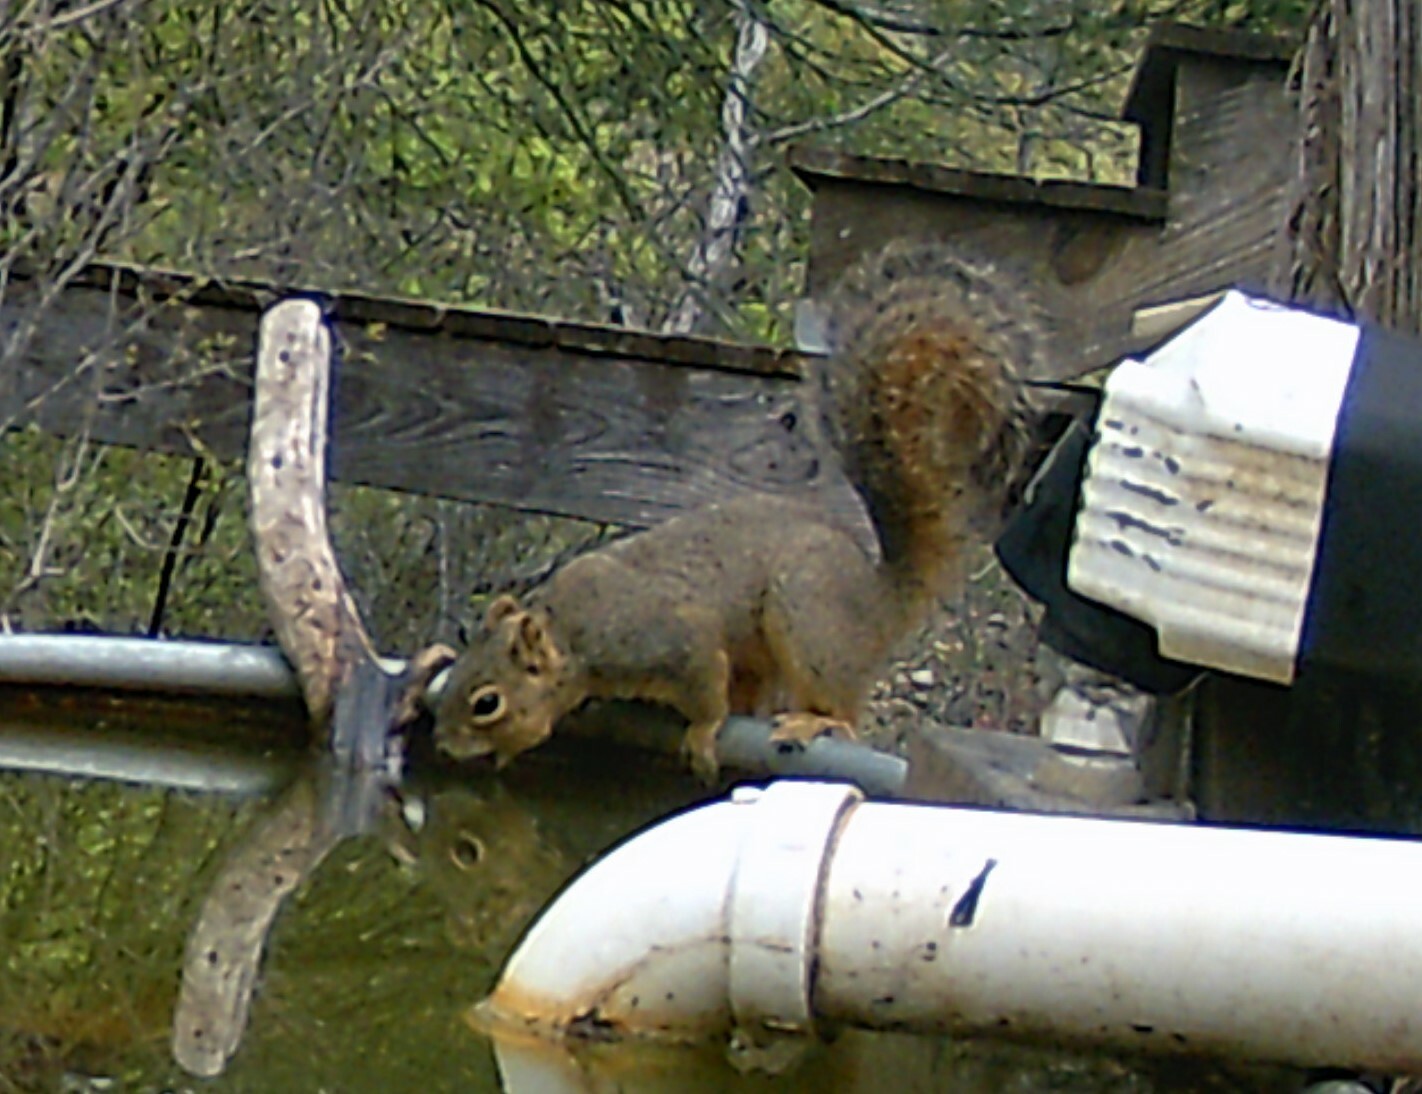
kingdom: Animalia
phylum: Chordata
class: Mammalia
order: Rodentia
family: Sciuridae
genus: Sciurus
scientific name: Sciurus niger
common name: Fox squirrel
